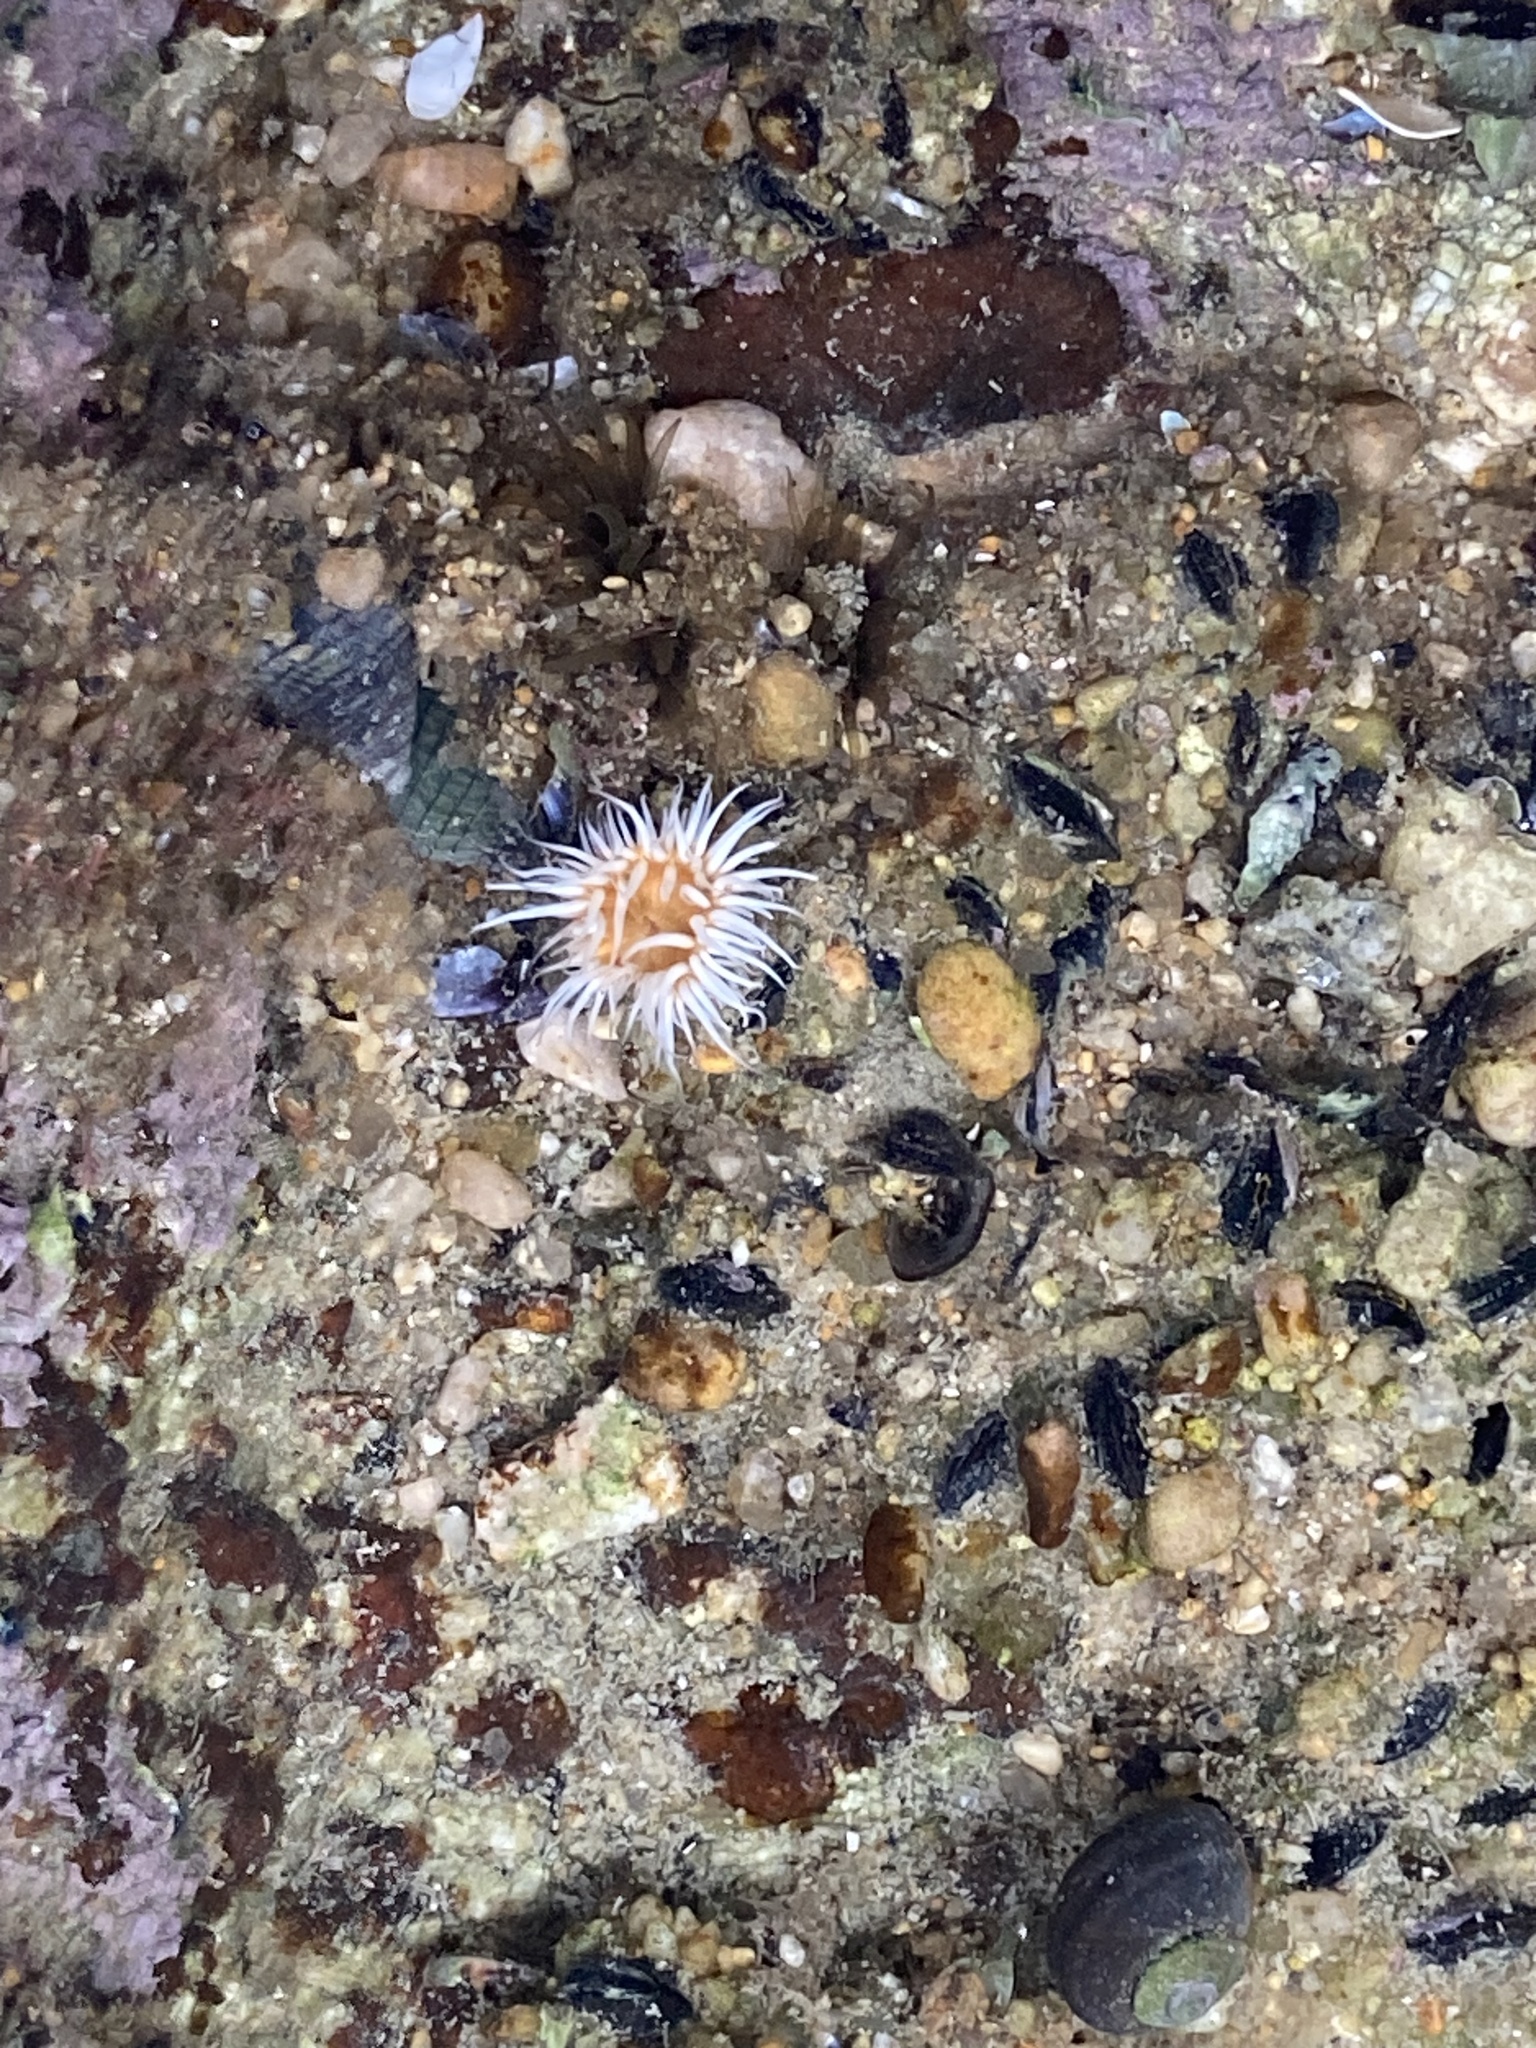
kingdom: Animalia
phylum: Cnidaria
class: Anthozoa
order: Actiniaria
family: Sagartiidae
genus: Anthothoe
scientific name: Anthothoe albocincta
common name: Orange striped anemone
